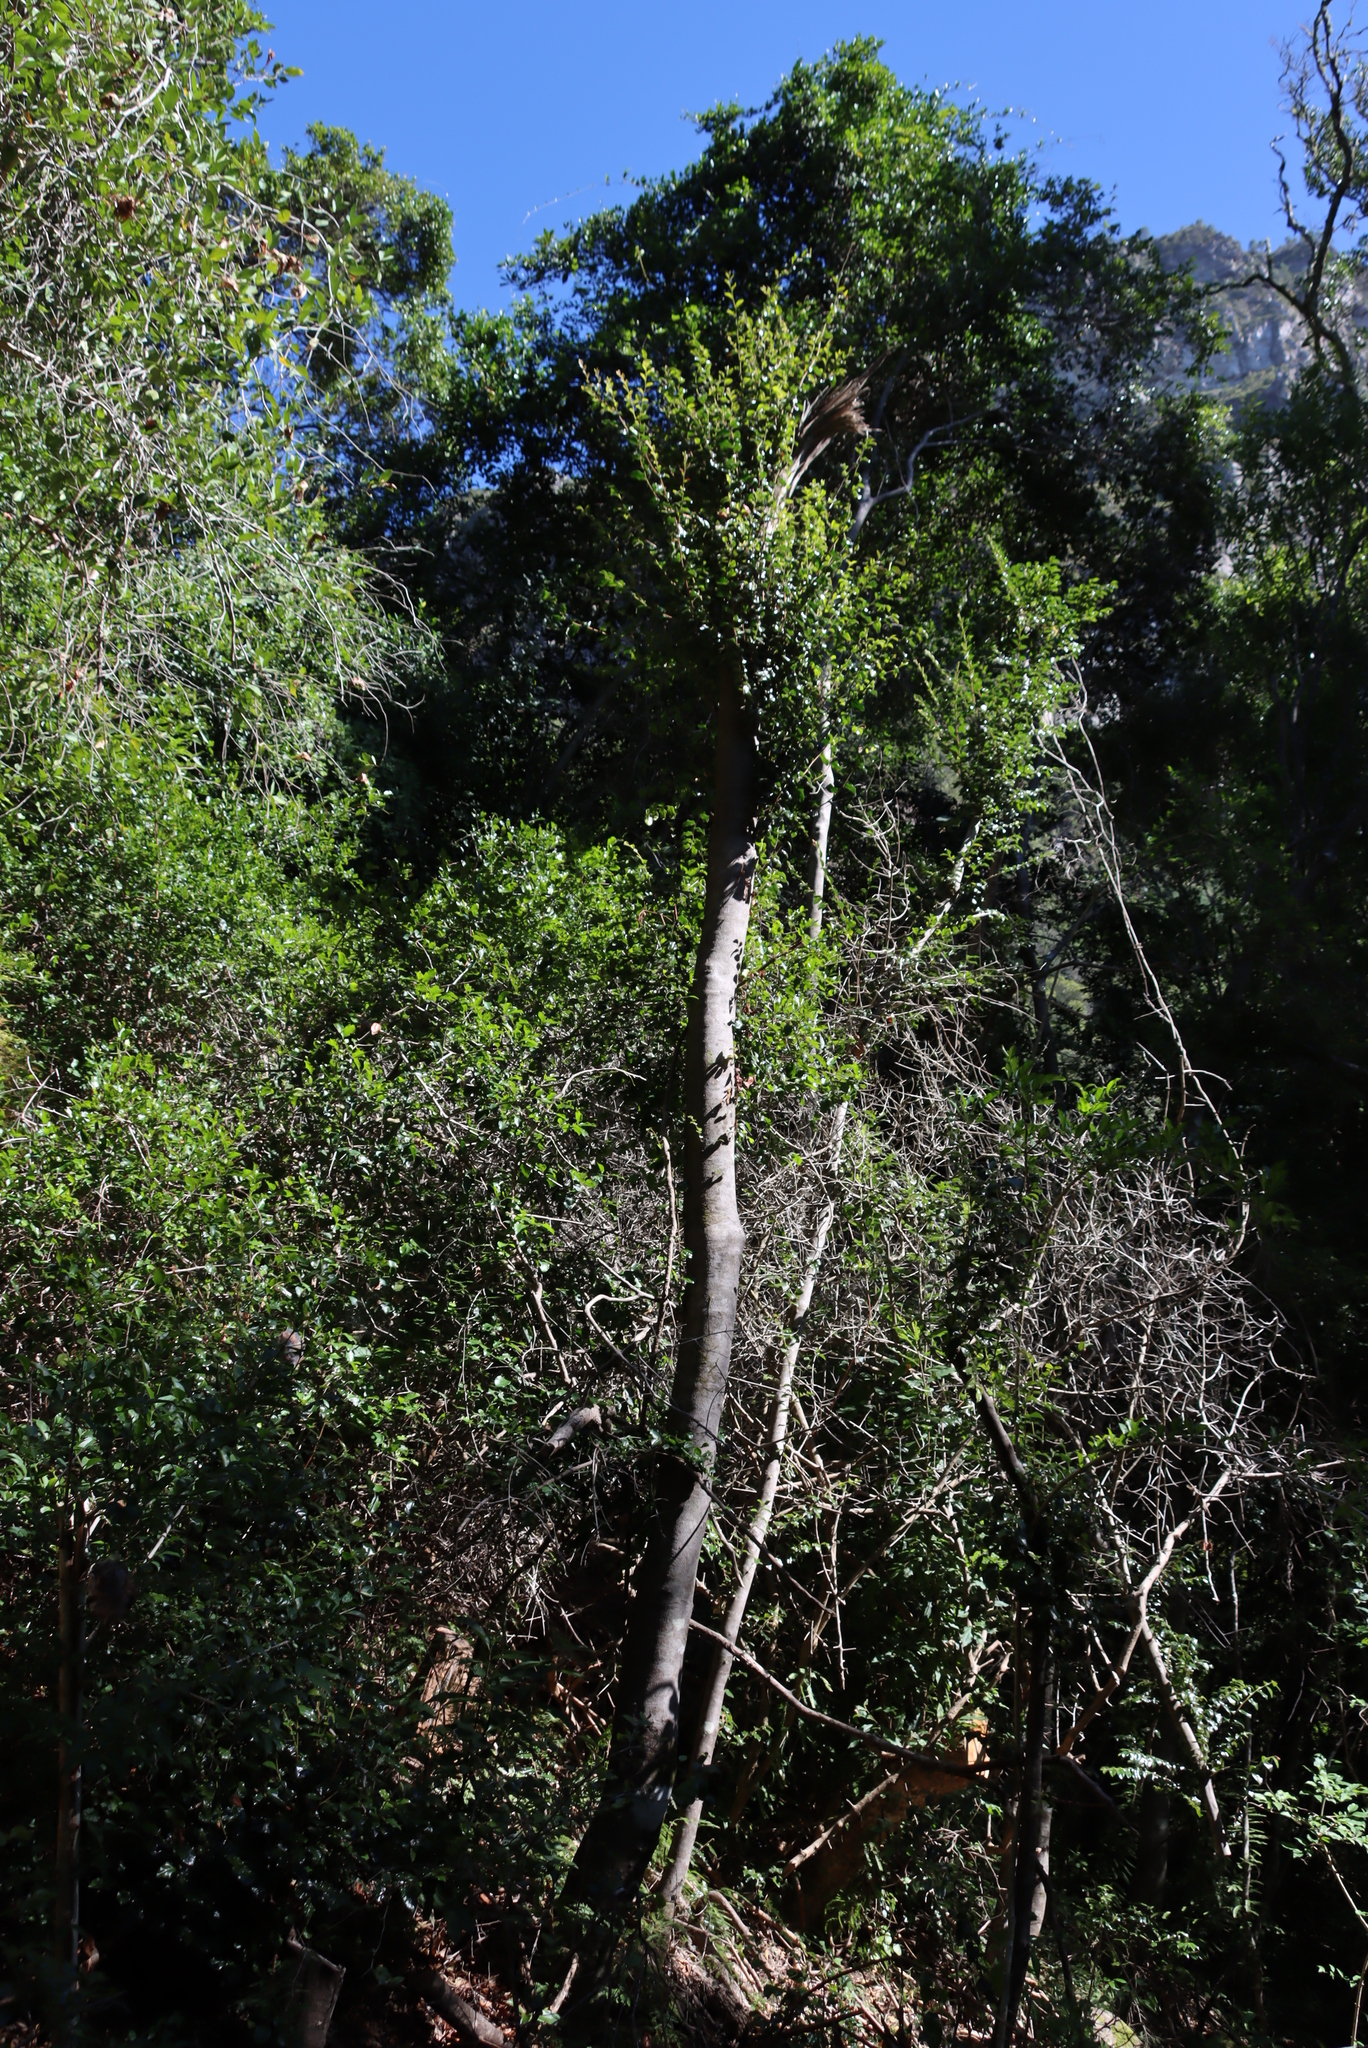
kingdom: Plantae
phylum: Tracheophyta
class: Magnoliopsida
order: Ericales
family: Ebenaceae
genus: Diospyros
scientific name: Diospyros whyteana
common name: Bladder-nut
